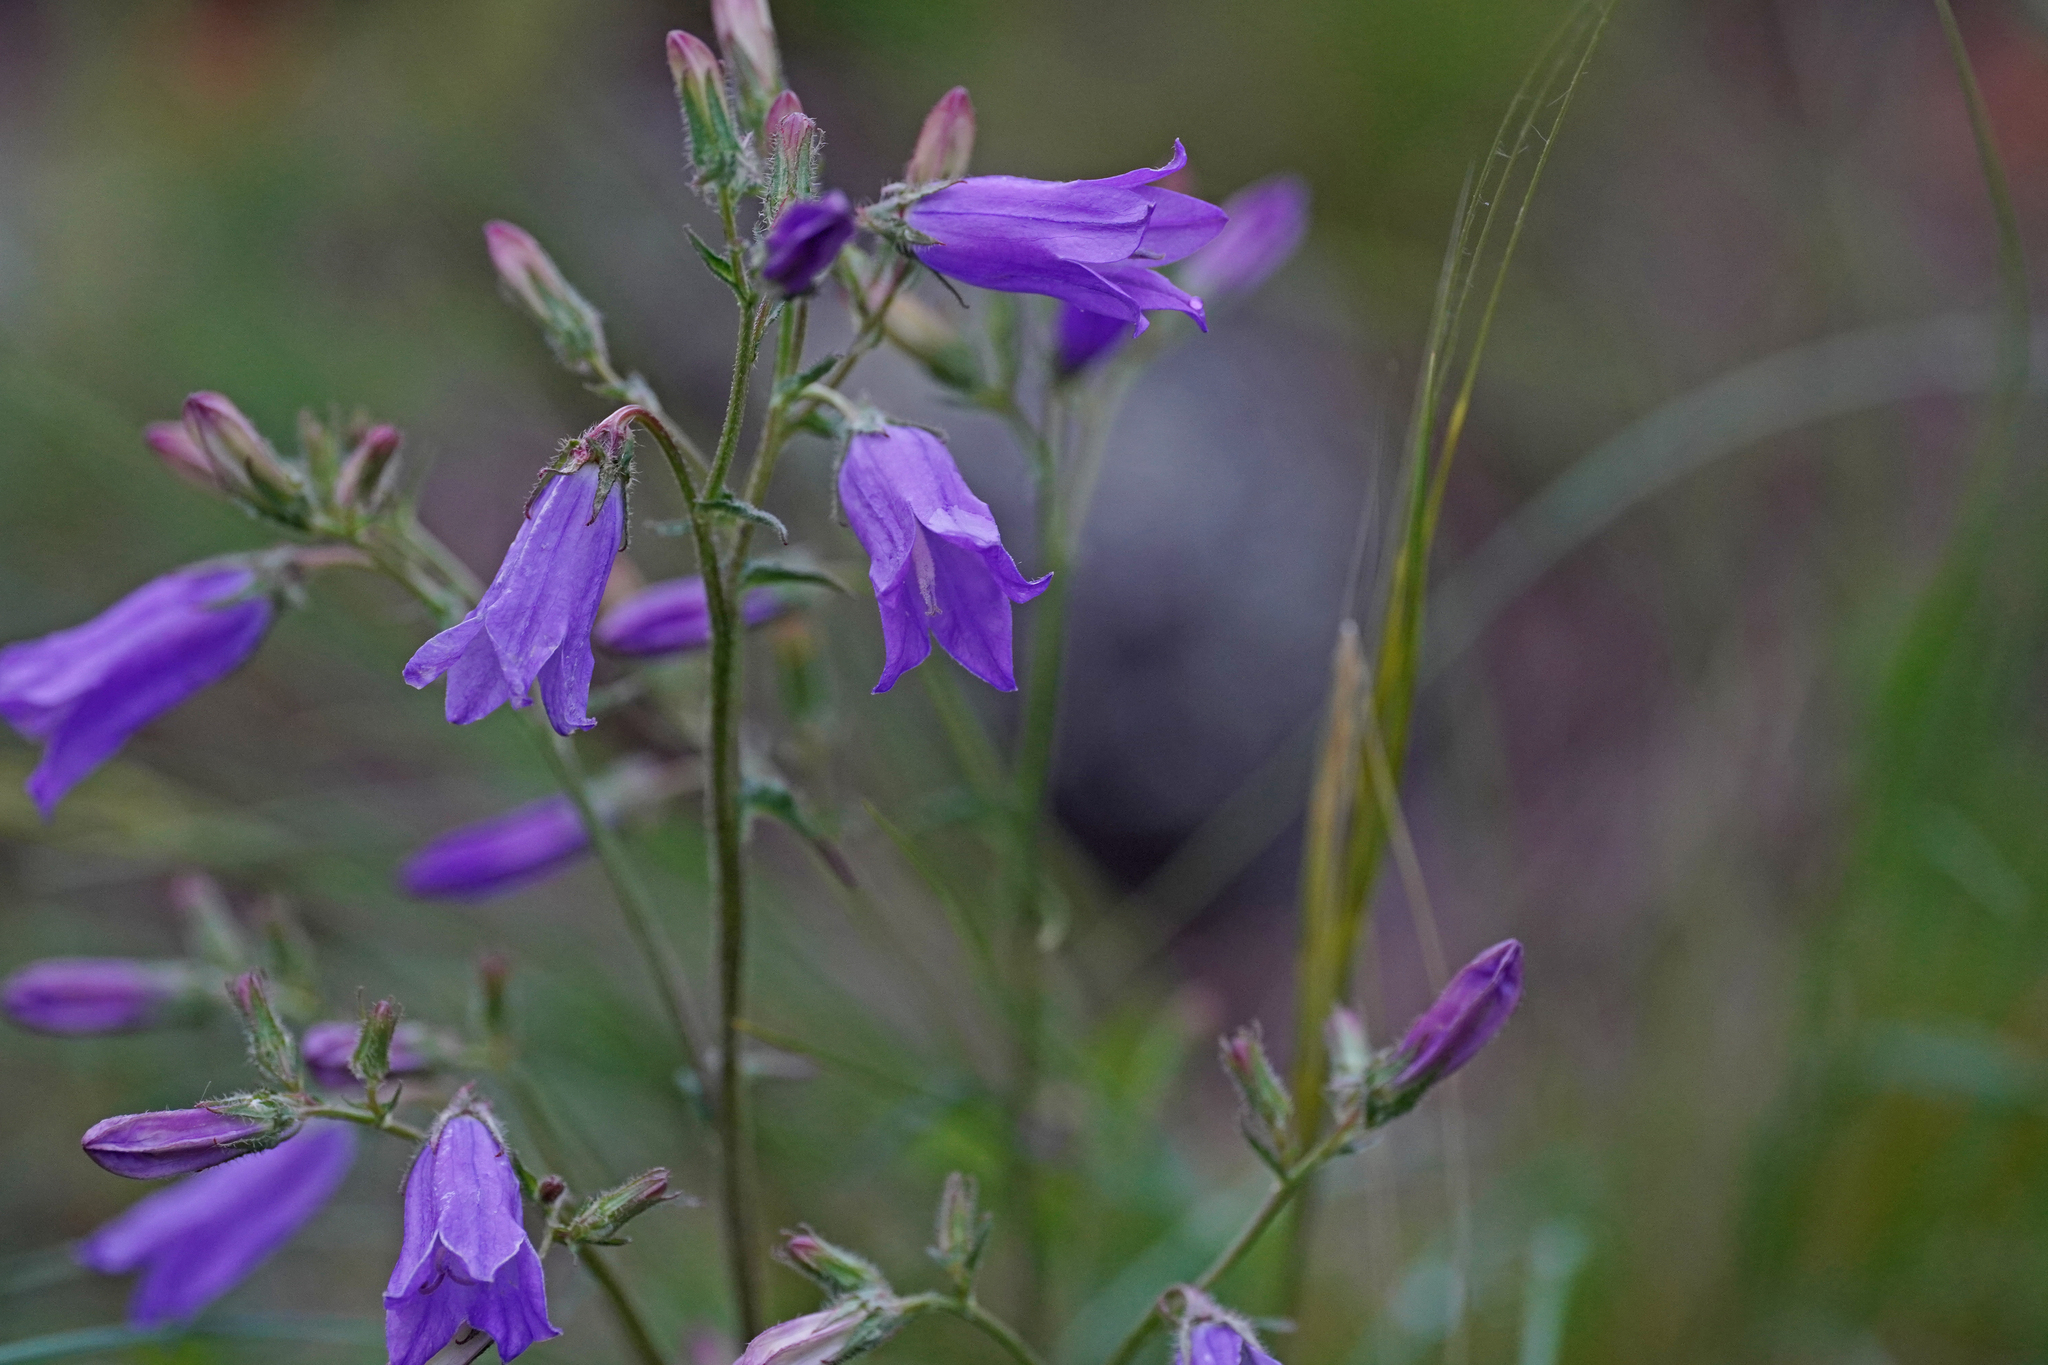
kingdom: Plantae
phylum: Tracheophyta
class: Magnoliopsida
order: Asterales
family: Campanulaceae
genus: Campanula
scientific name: Campanula sibirica
